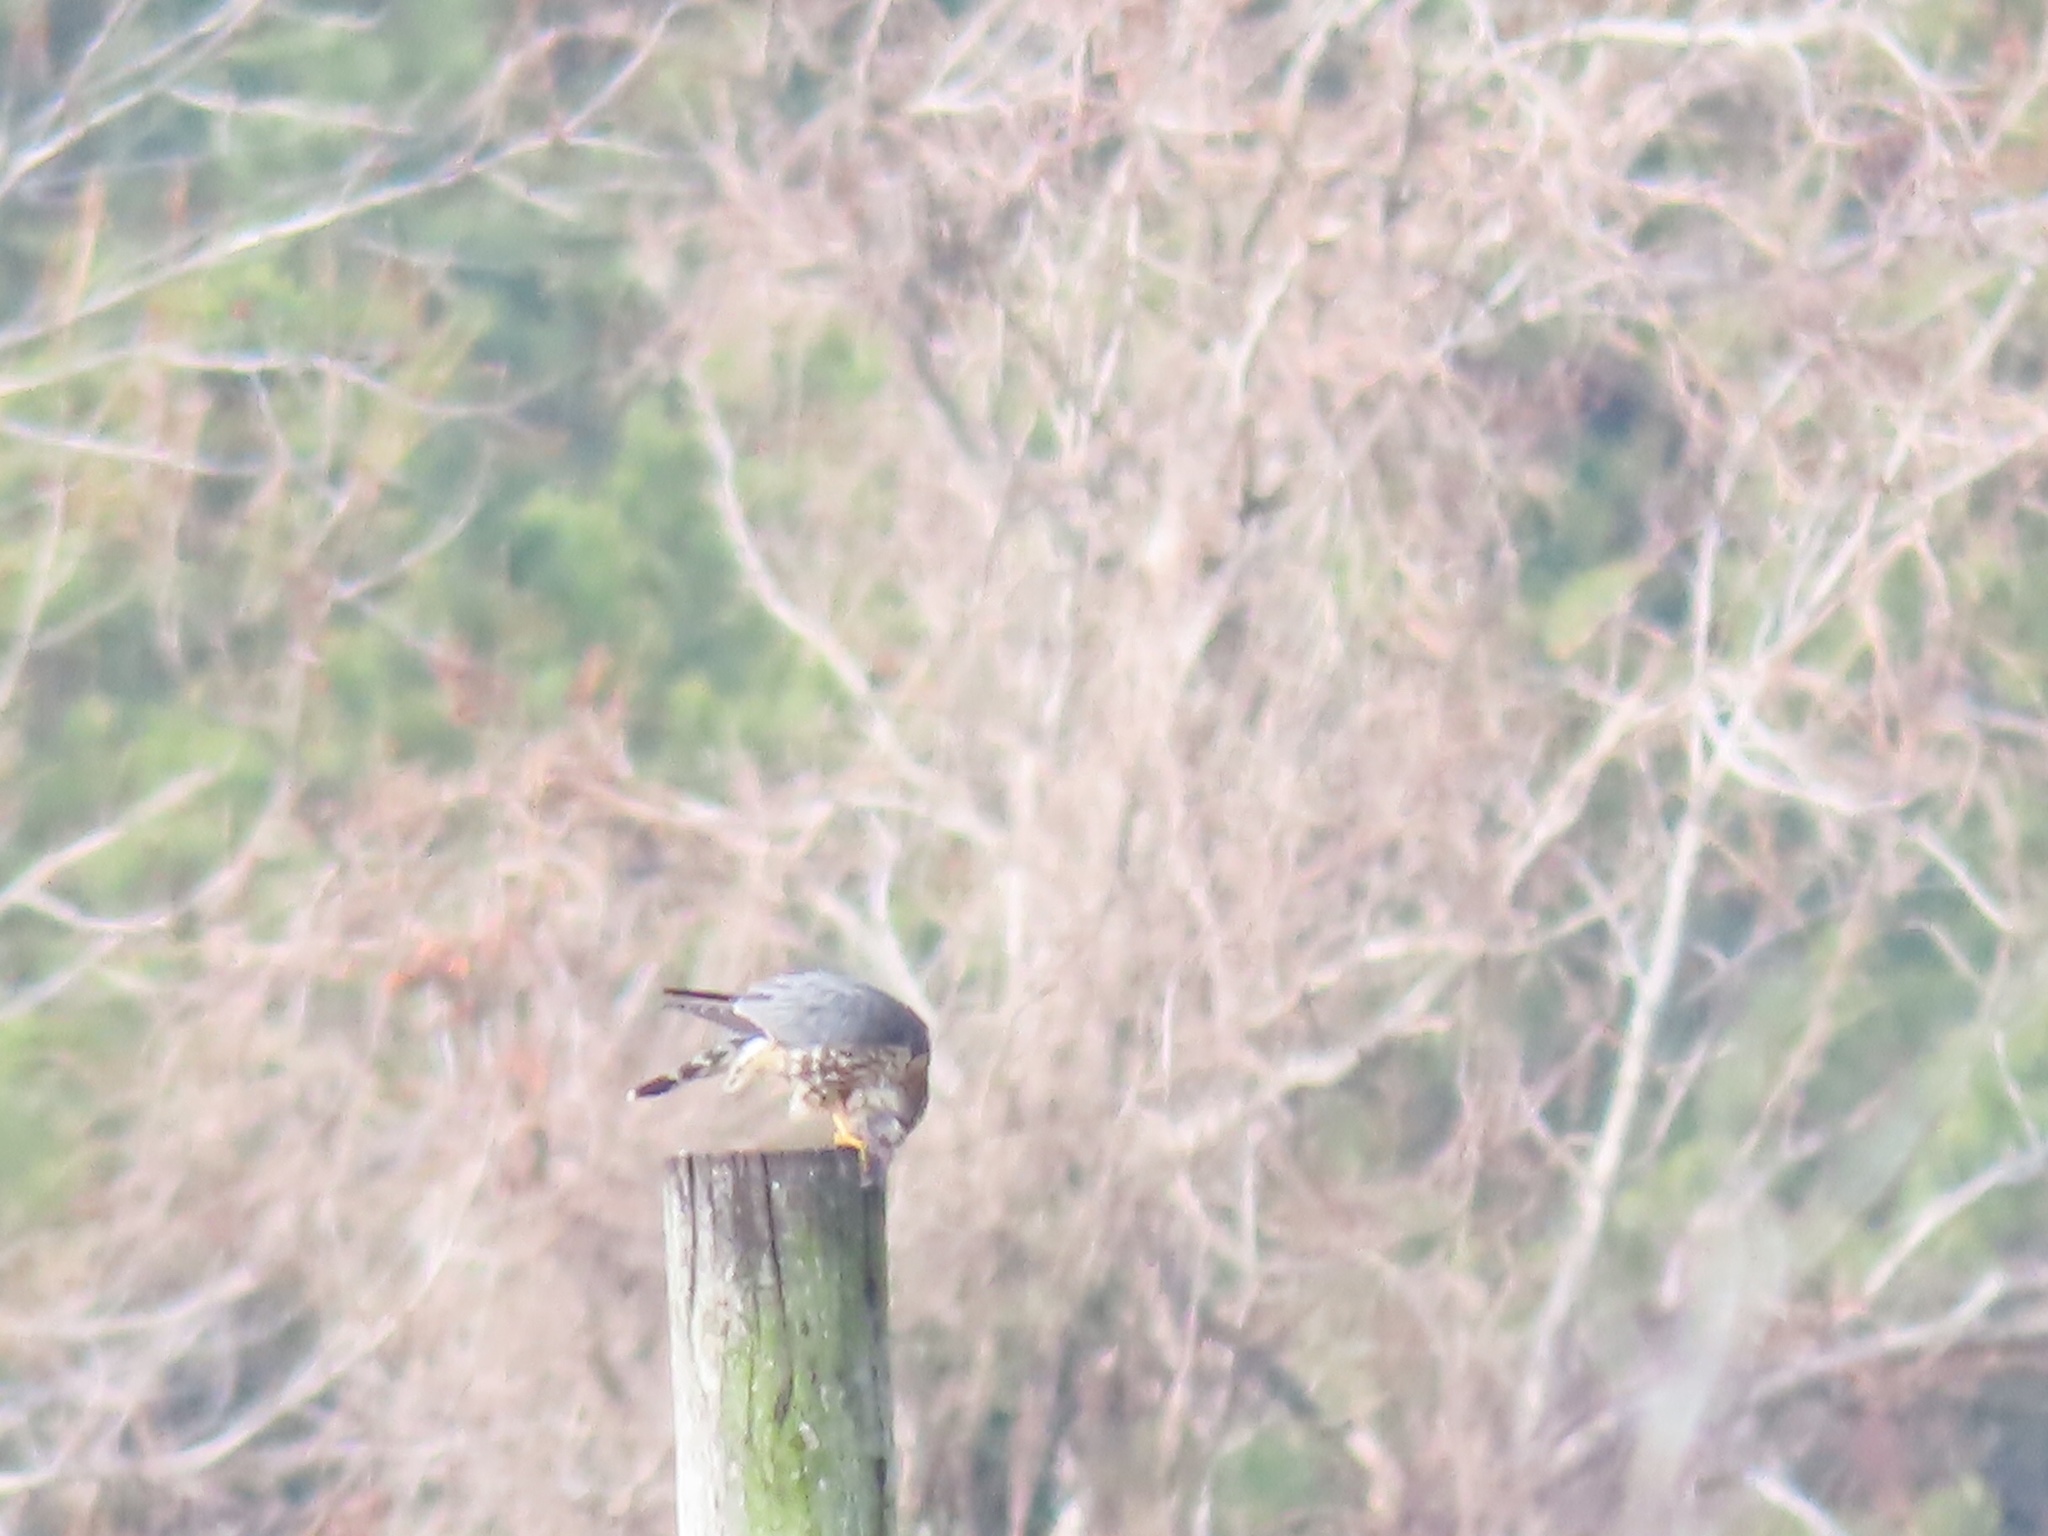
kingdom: Animalia
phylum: Chordata
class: Aves
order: Falconiformes
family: Falconidae
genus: Falco
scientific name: Falco columbarius
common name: Merlin
